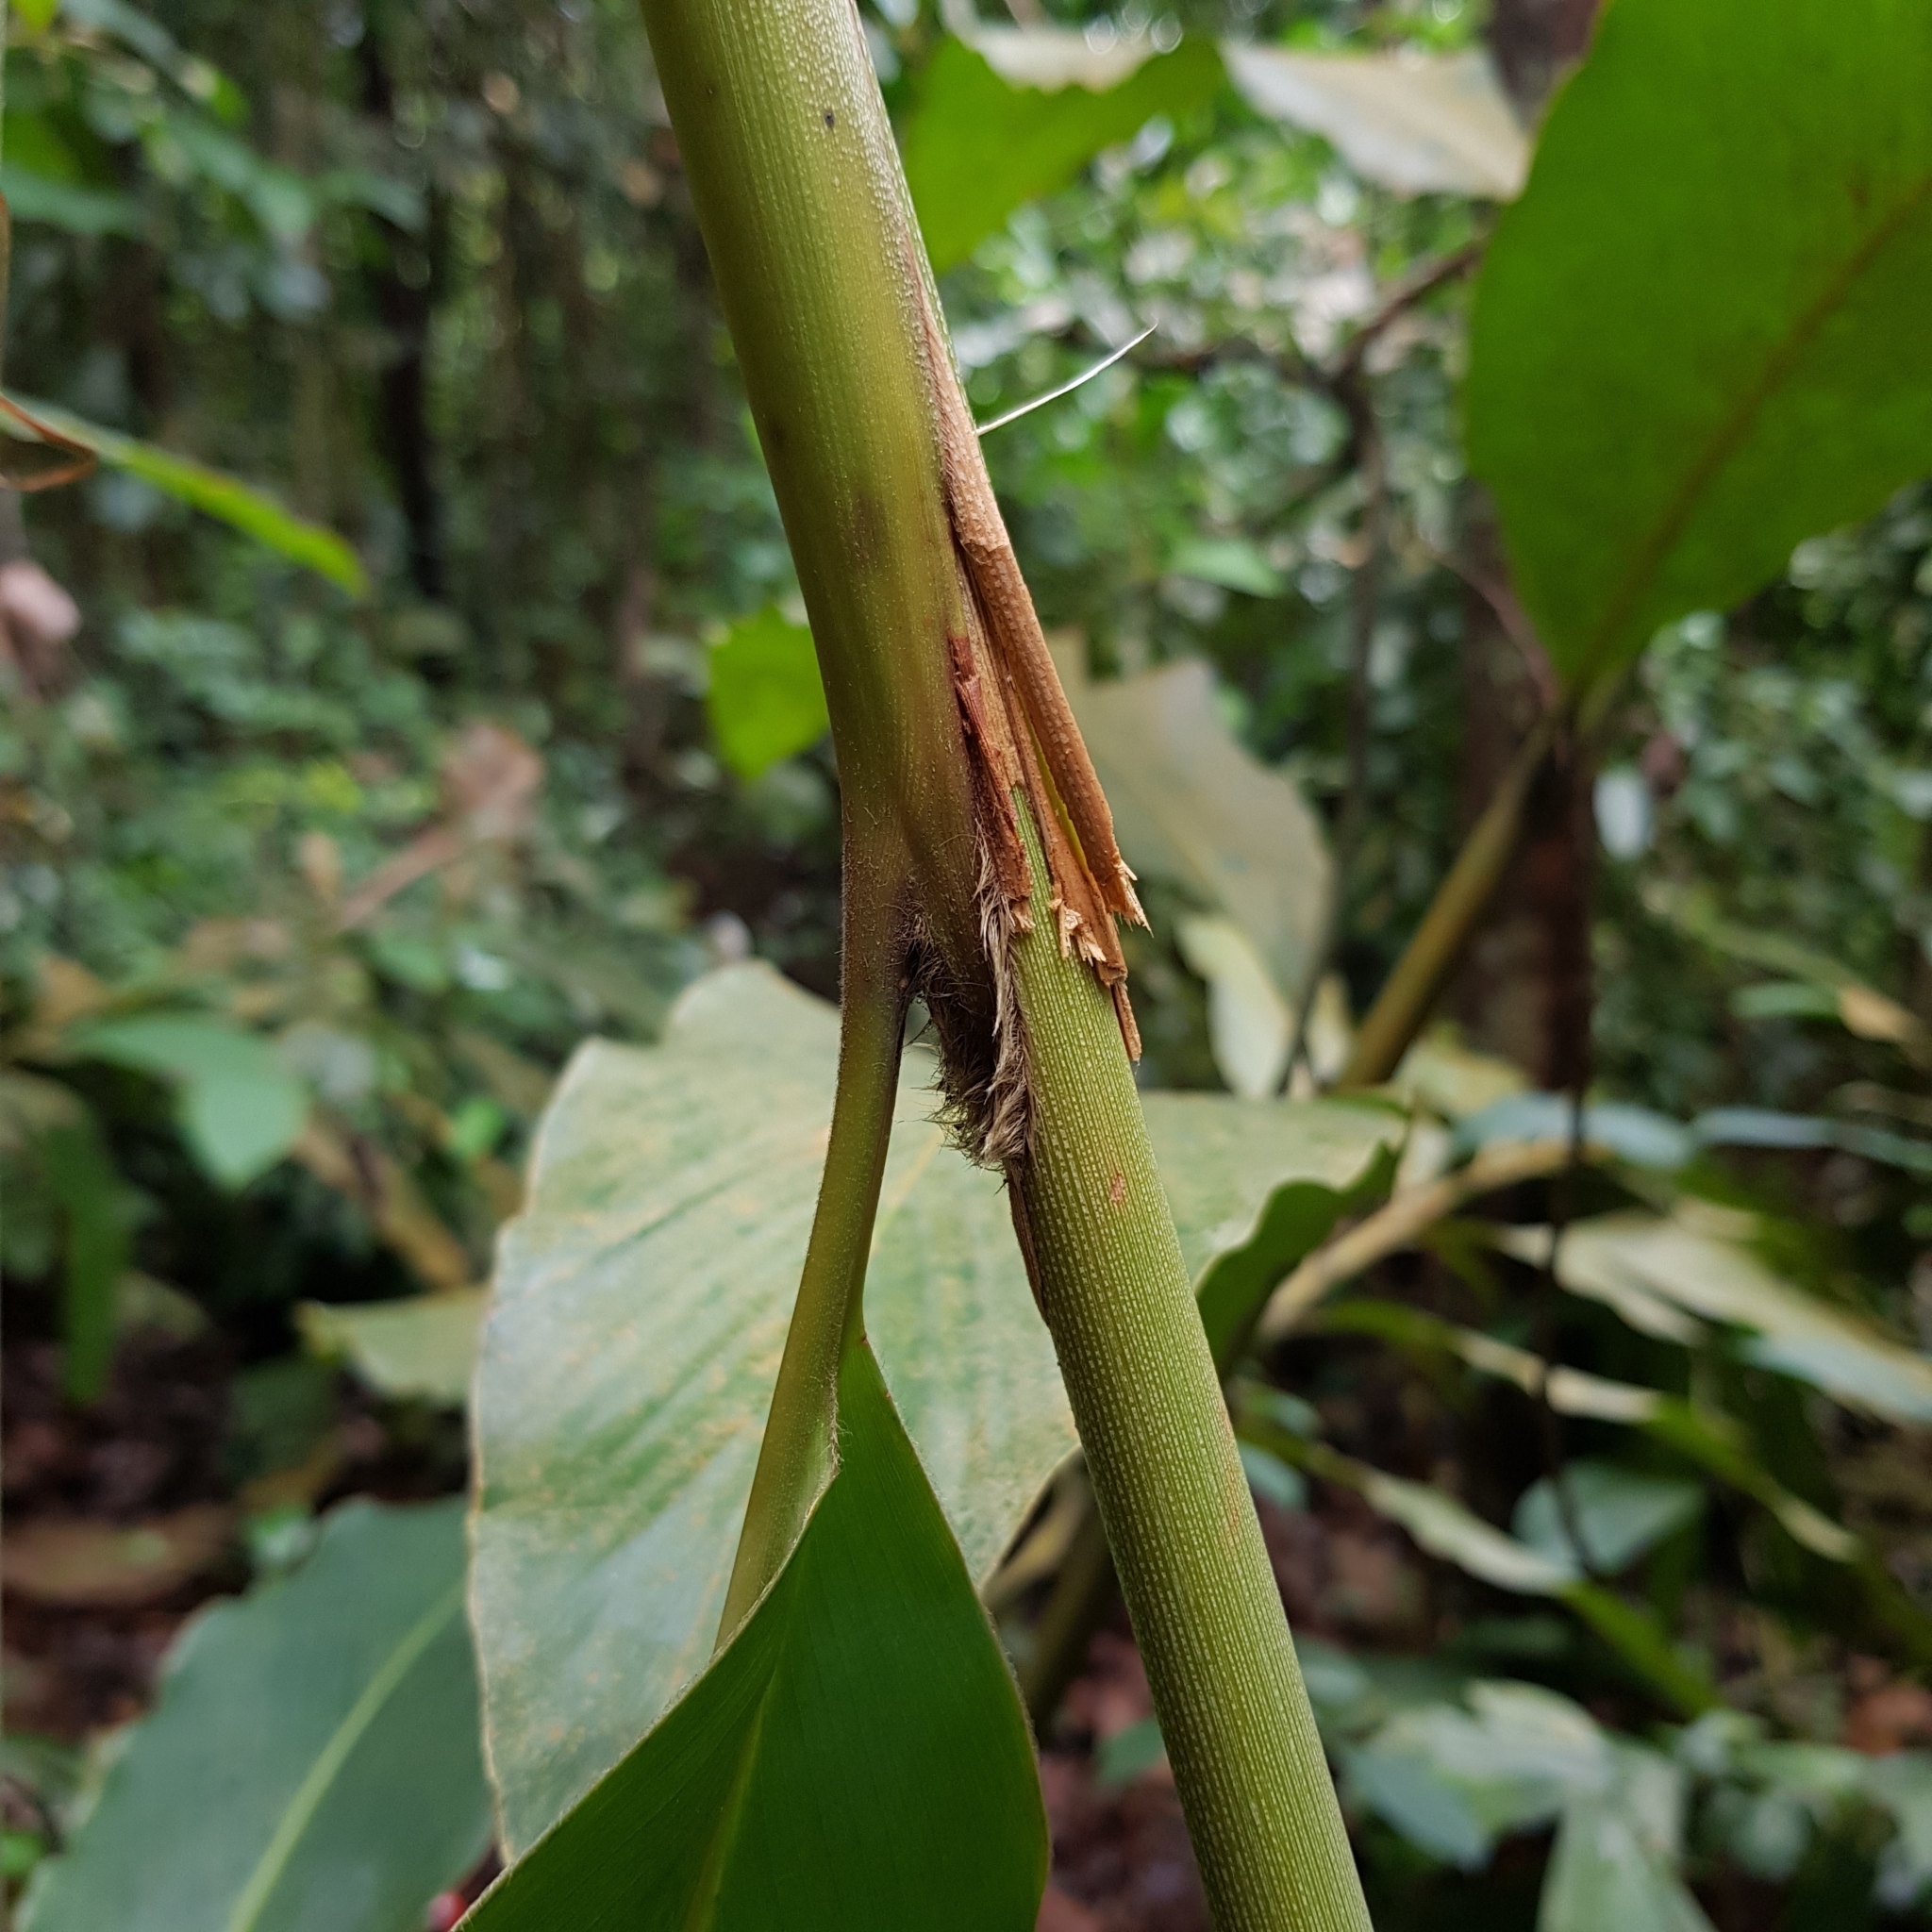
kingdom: Plantae
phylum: Tracheophyta
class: Liliopsida
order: Zingiberales
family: Zingiberaceae
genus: Hornstedtia
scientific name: Hornstedtia scyphifera
